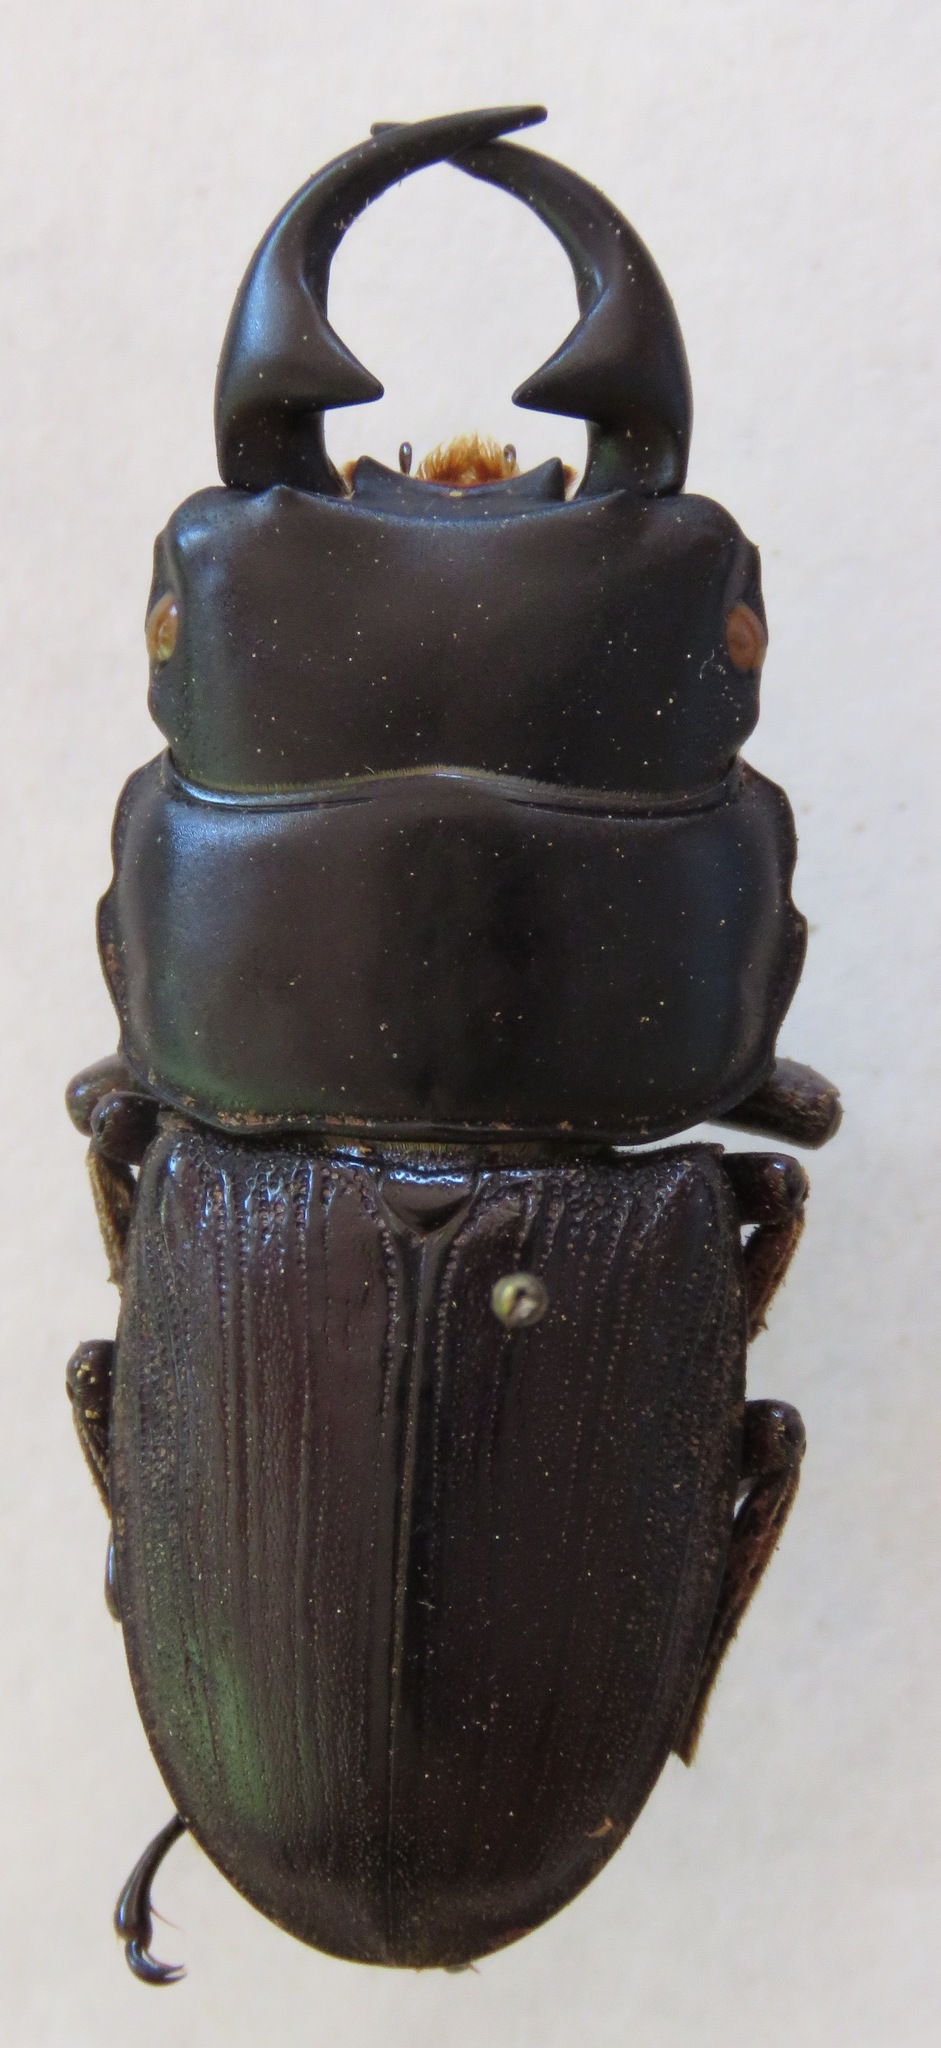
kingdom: Animalia
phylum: Arthropoda
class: Insecta
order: Coleoptera
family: Lucanidae
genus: Dorcus
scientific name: Dorcus ritsemae
